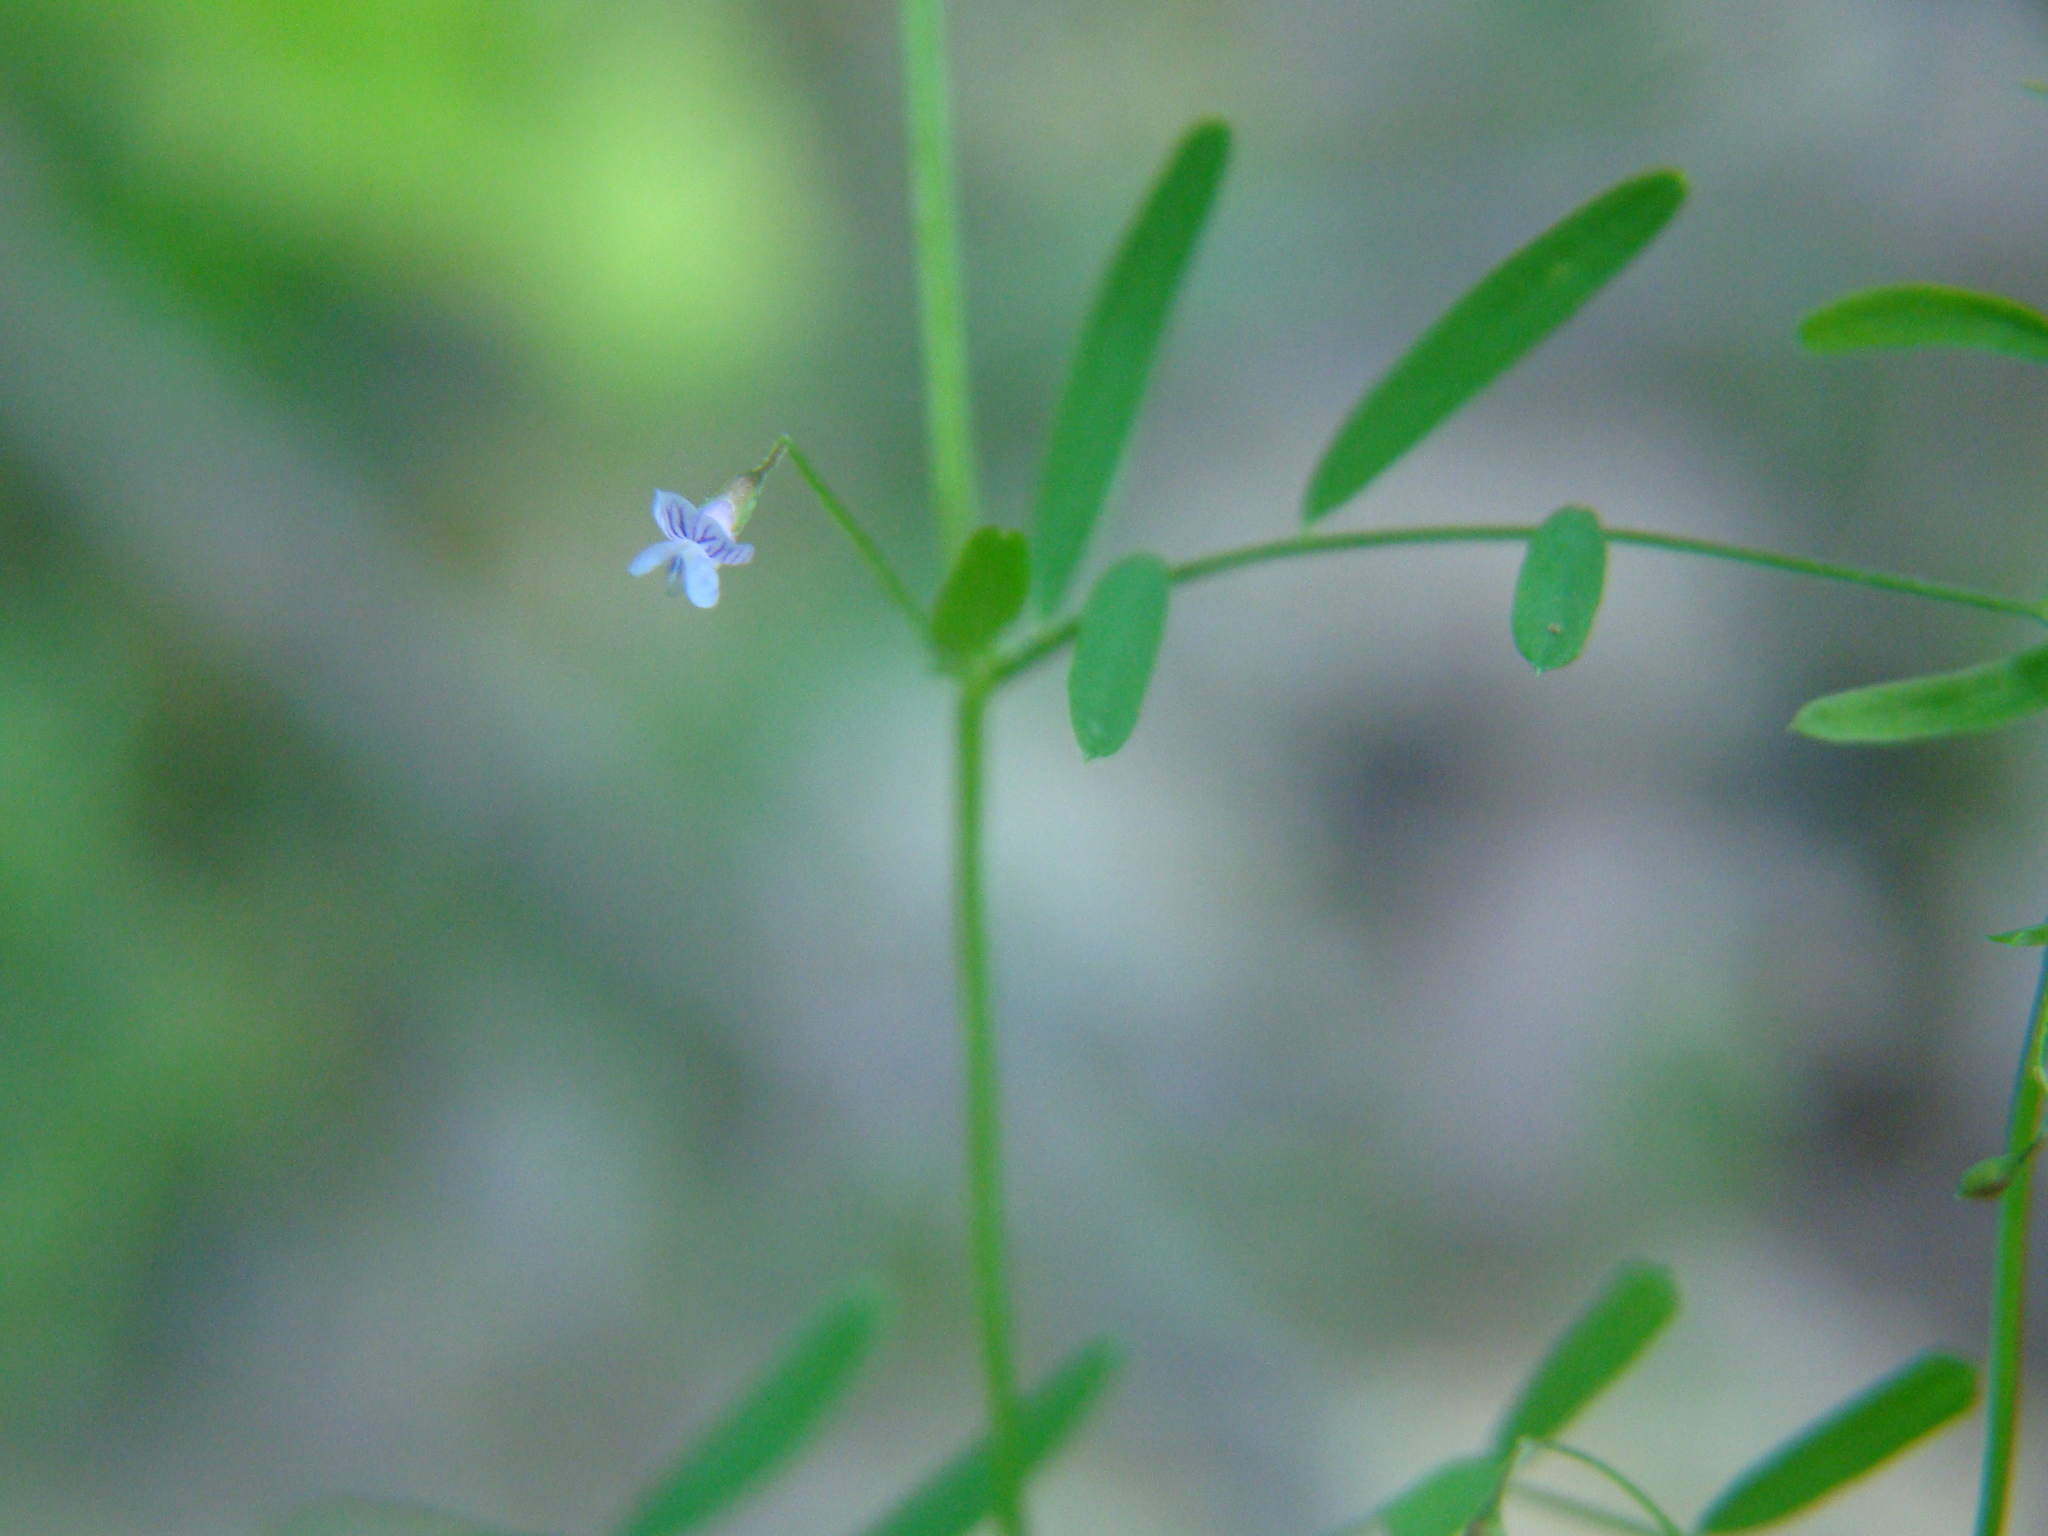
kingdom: Plantae
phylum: Tracheophyta
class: Magnoliopsida
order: Fabales
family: Fabaceae
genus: Vicia
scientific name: Vicia tetrasperma
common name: Smooth tare
